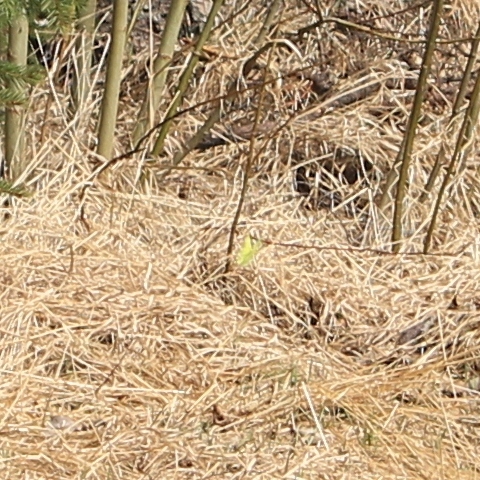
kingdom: Animalia
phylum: Arthropoda
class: Insecta
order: Lepidoptera
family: Pieridae
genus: Gonepteryx
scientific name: Gonepteryx rhamni
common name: Brimstone
